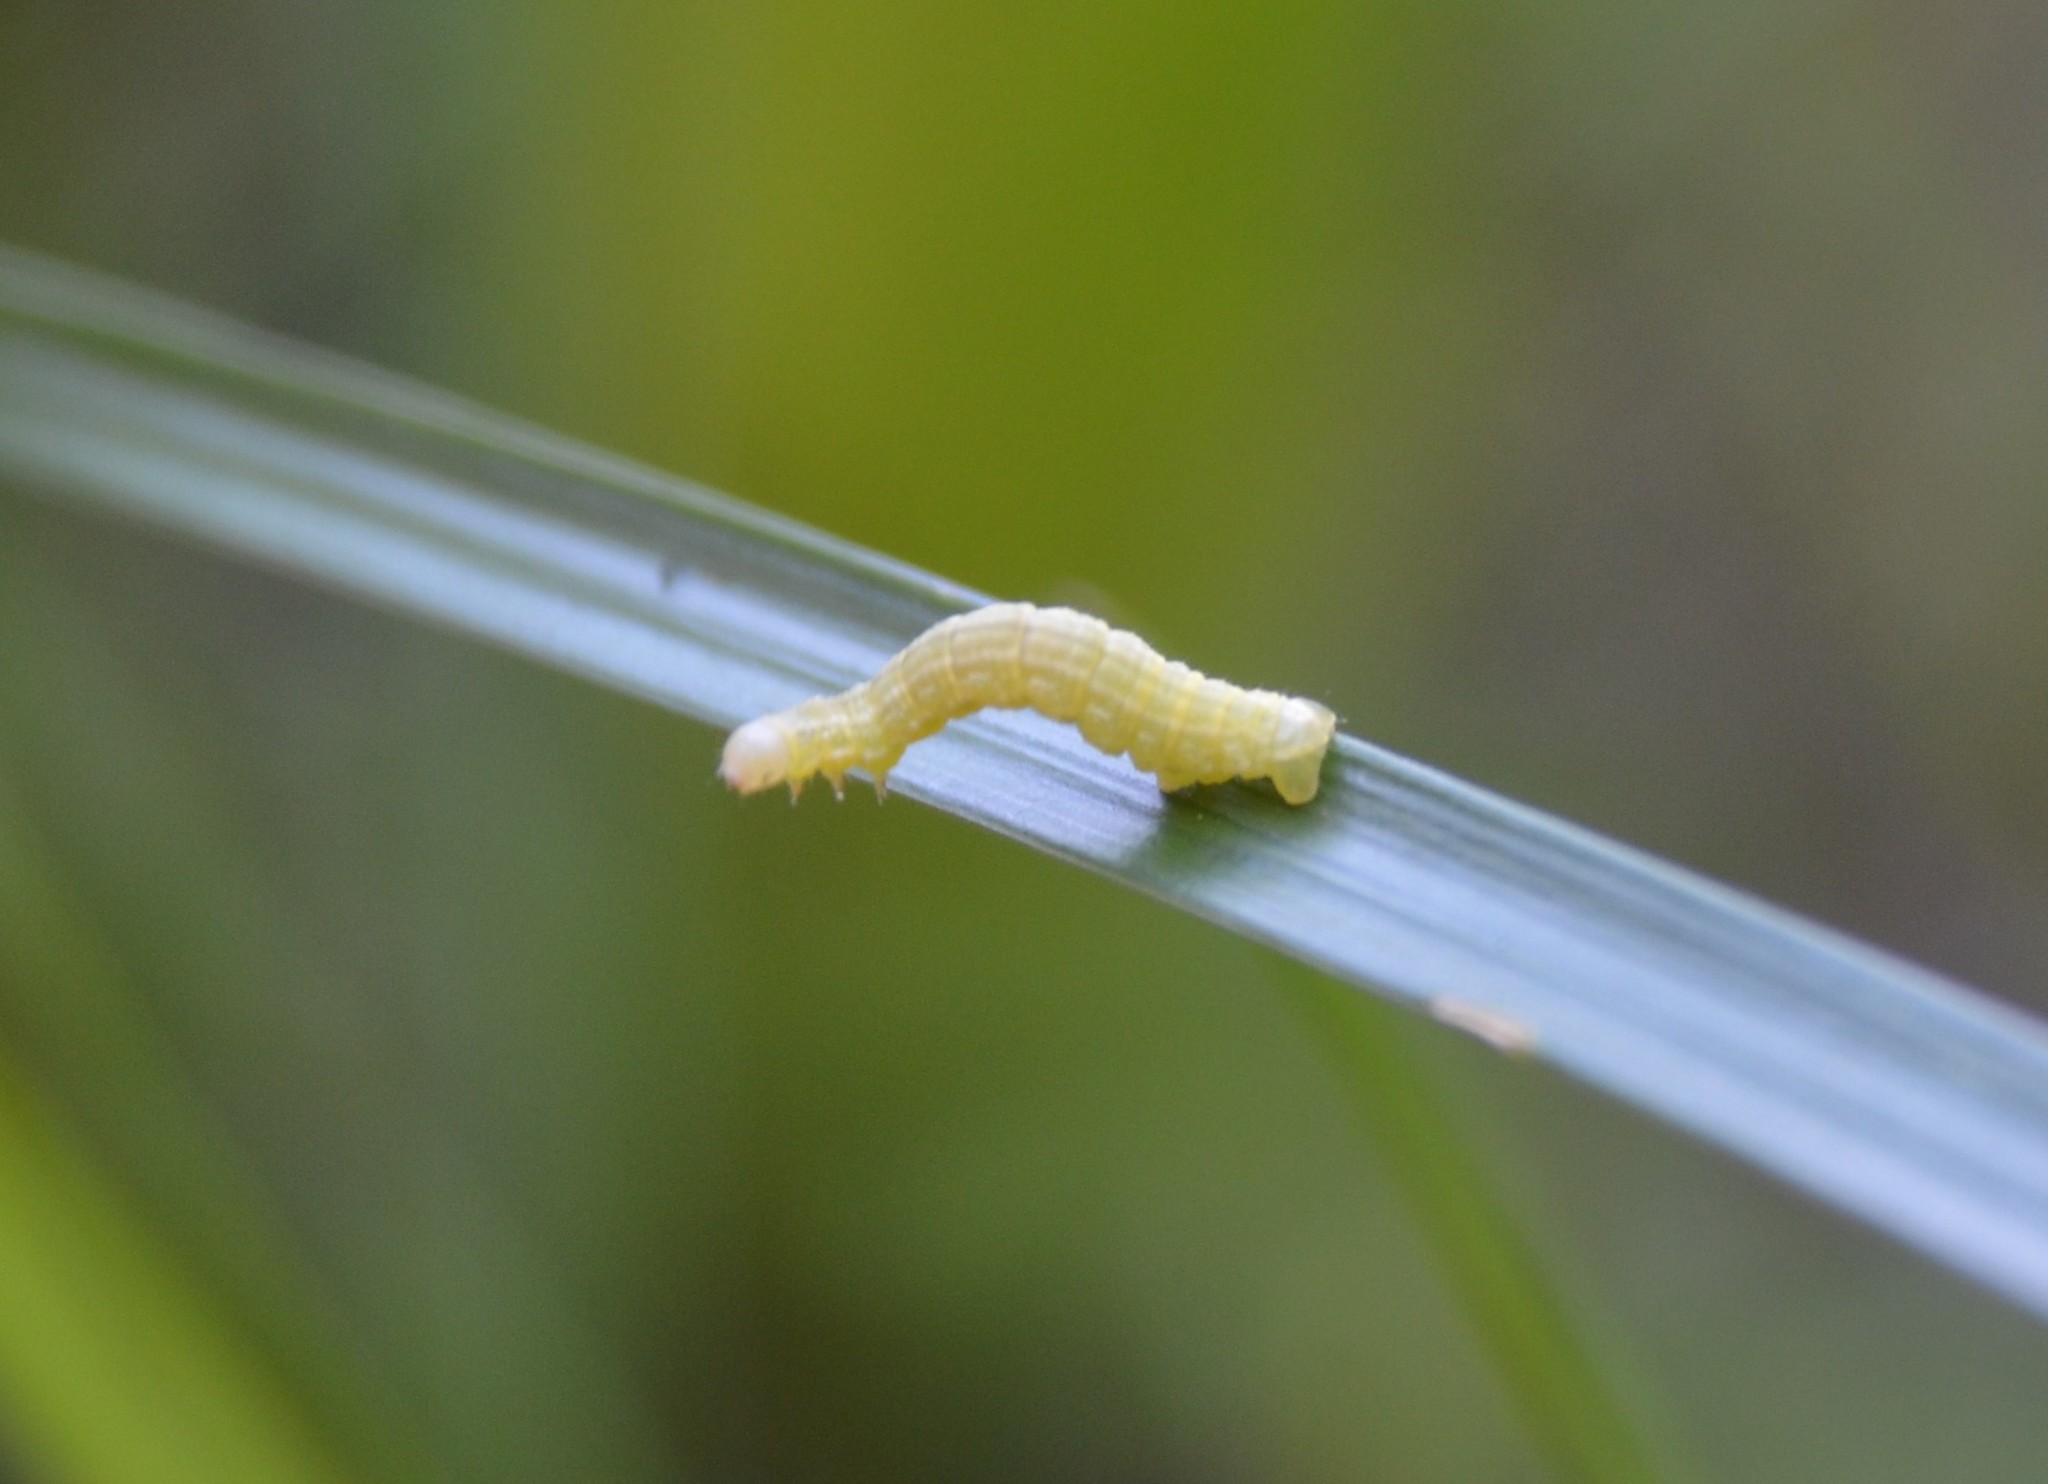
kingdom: Animalia
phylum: Arthropoda
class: Insecta
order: Lepidoptera
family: Geometridae
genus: Operophtera
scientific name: Operophtera brumata
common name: Winter moth
